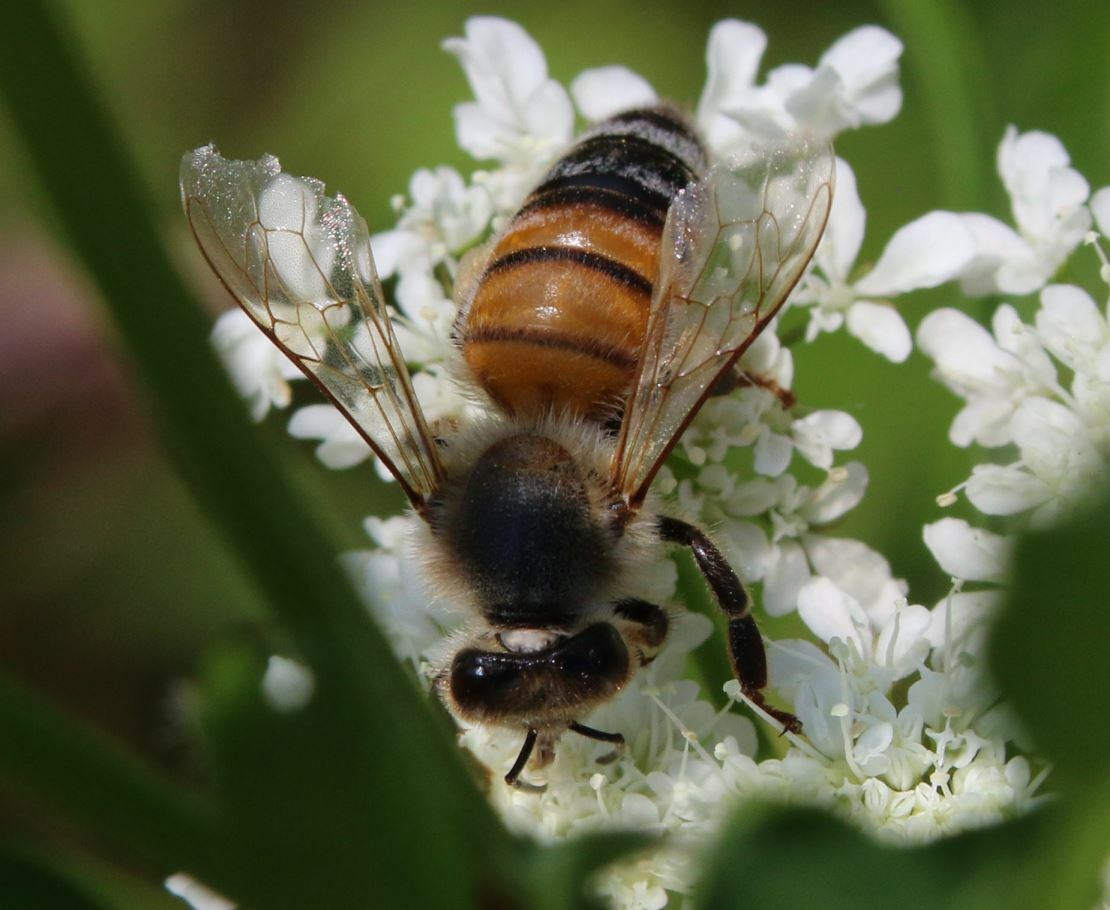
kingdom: Animalia
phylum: Arthropoda
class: Insecta
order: Hymenoptera
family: Apidae
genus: Apis
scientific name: Apis mellifera
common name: Honey bee
